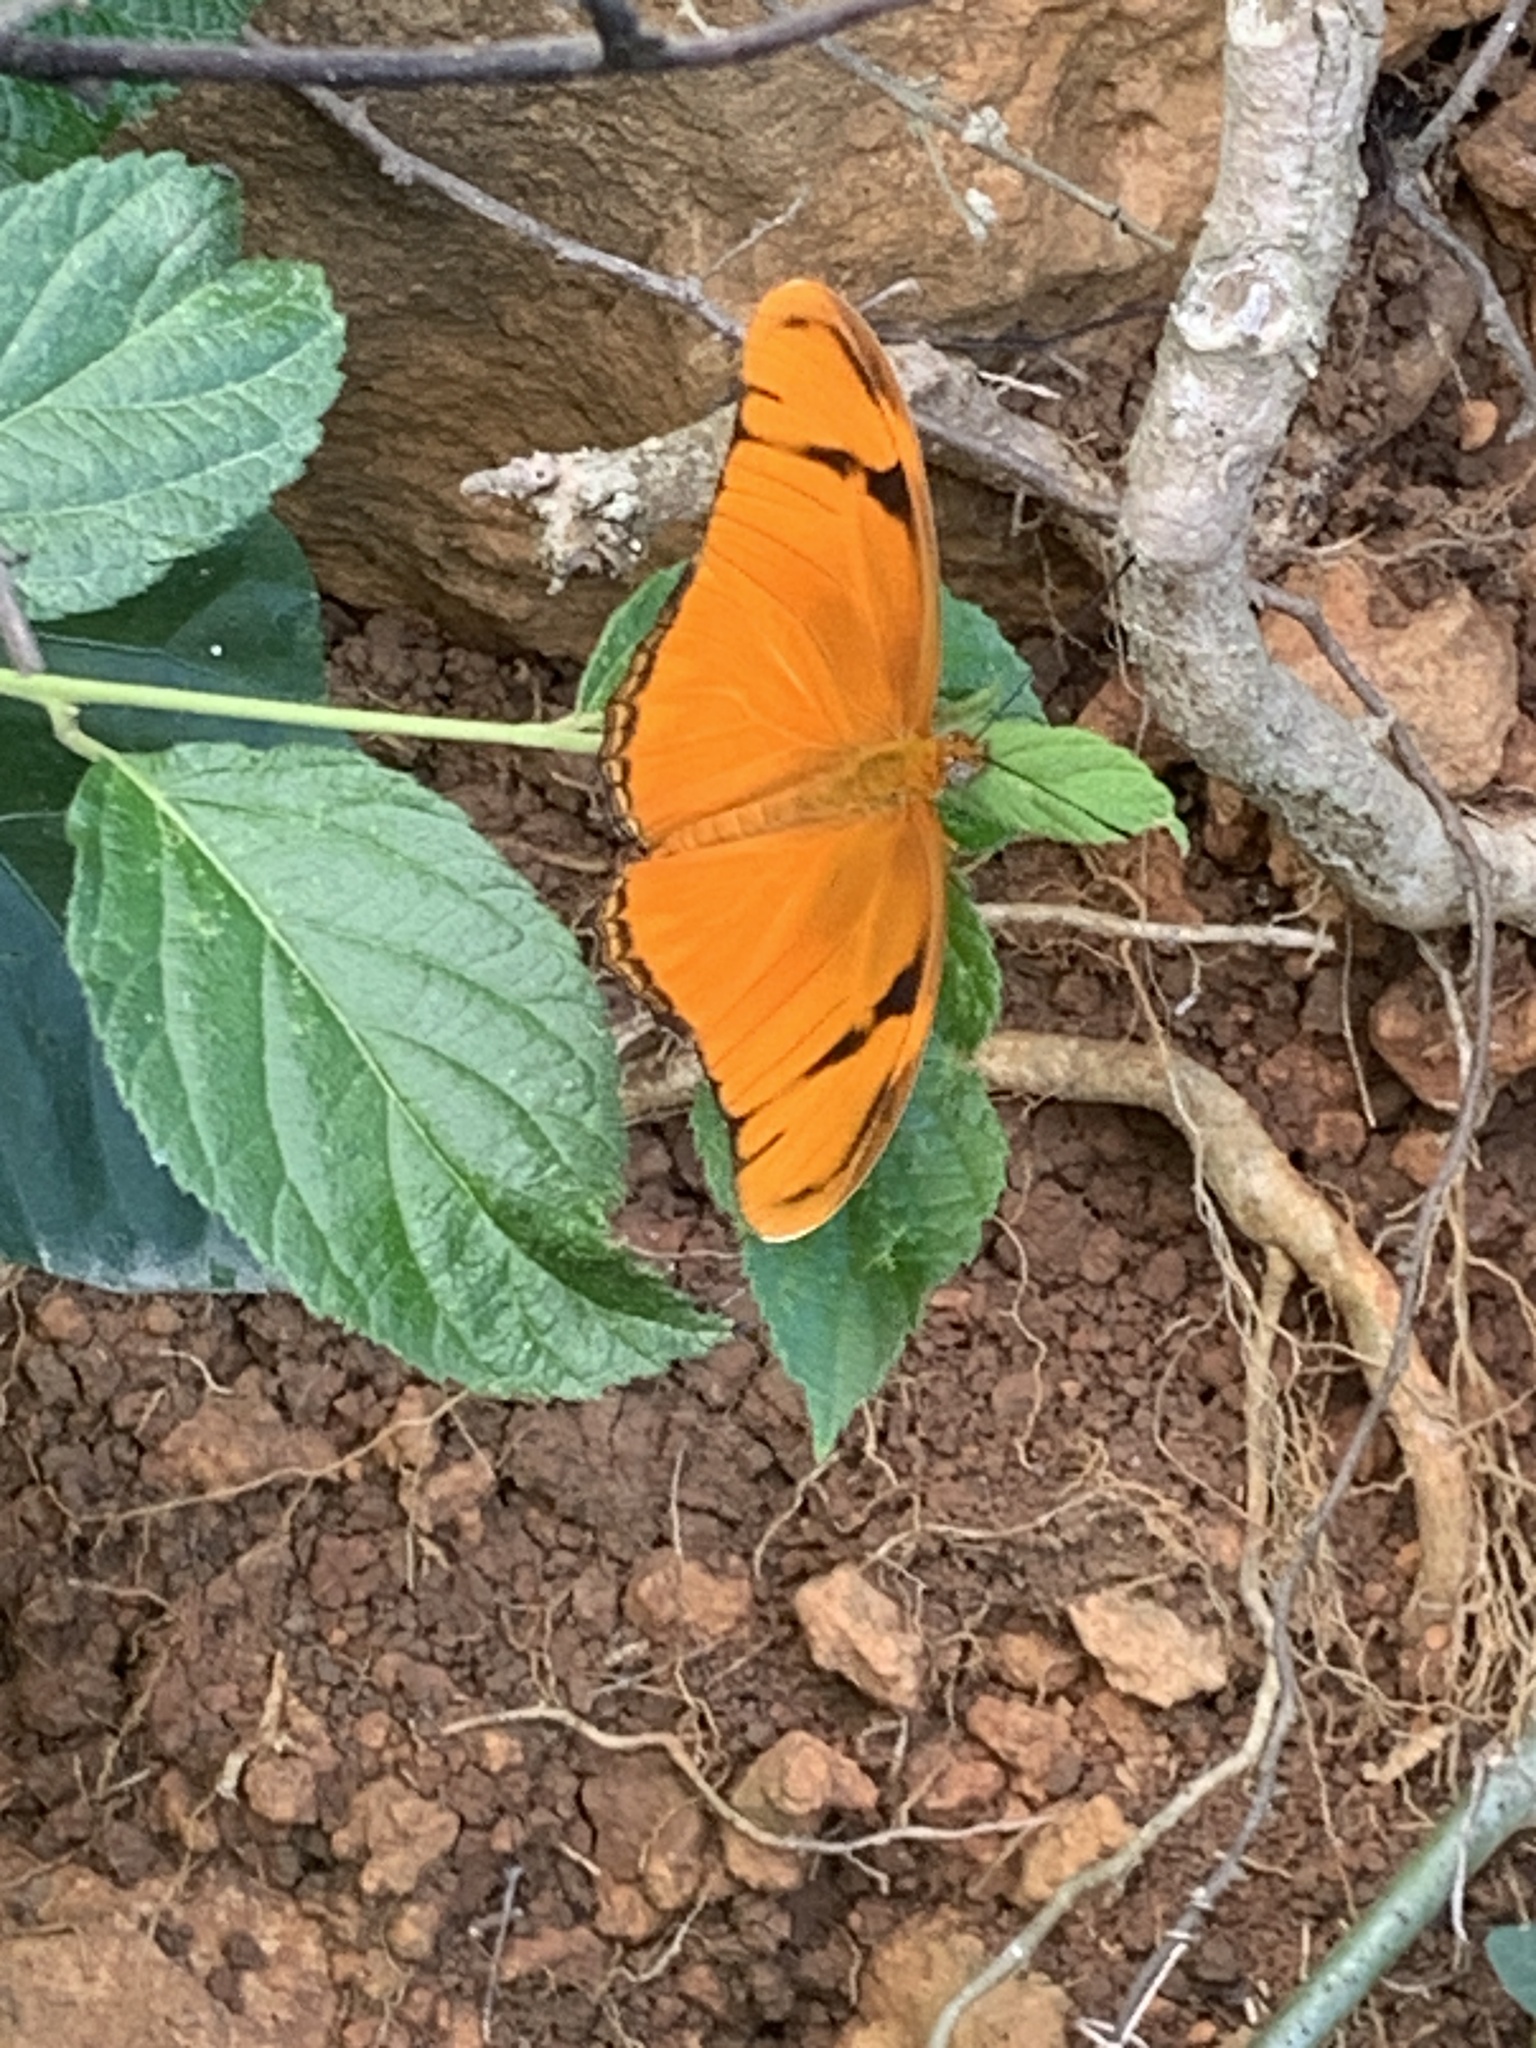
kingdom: Animalia
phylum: Arthropoda
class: Insecta
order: Lepidoptera
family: Nymphalidae
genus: Dryas
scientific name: Dryas iulia
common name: Flambeau
